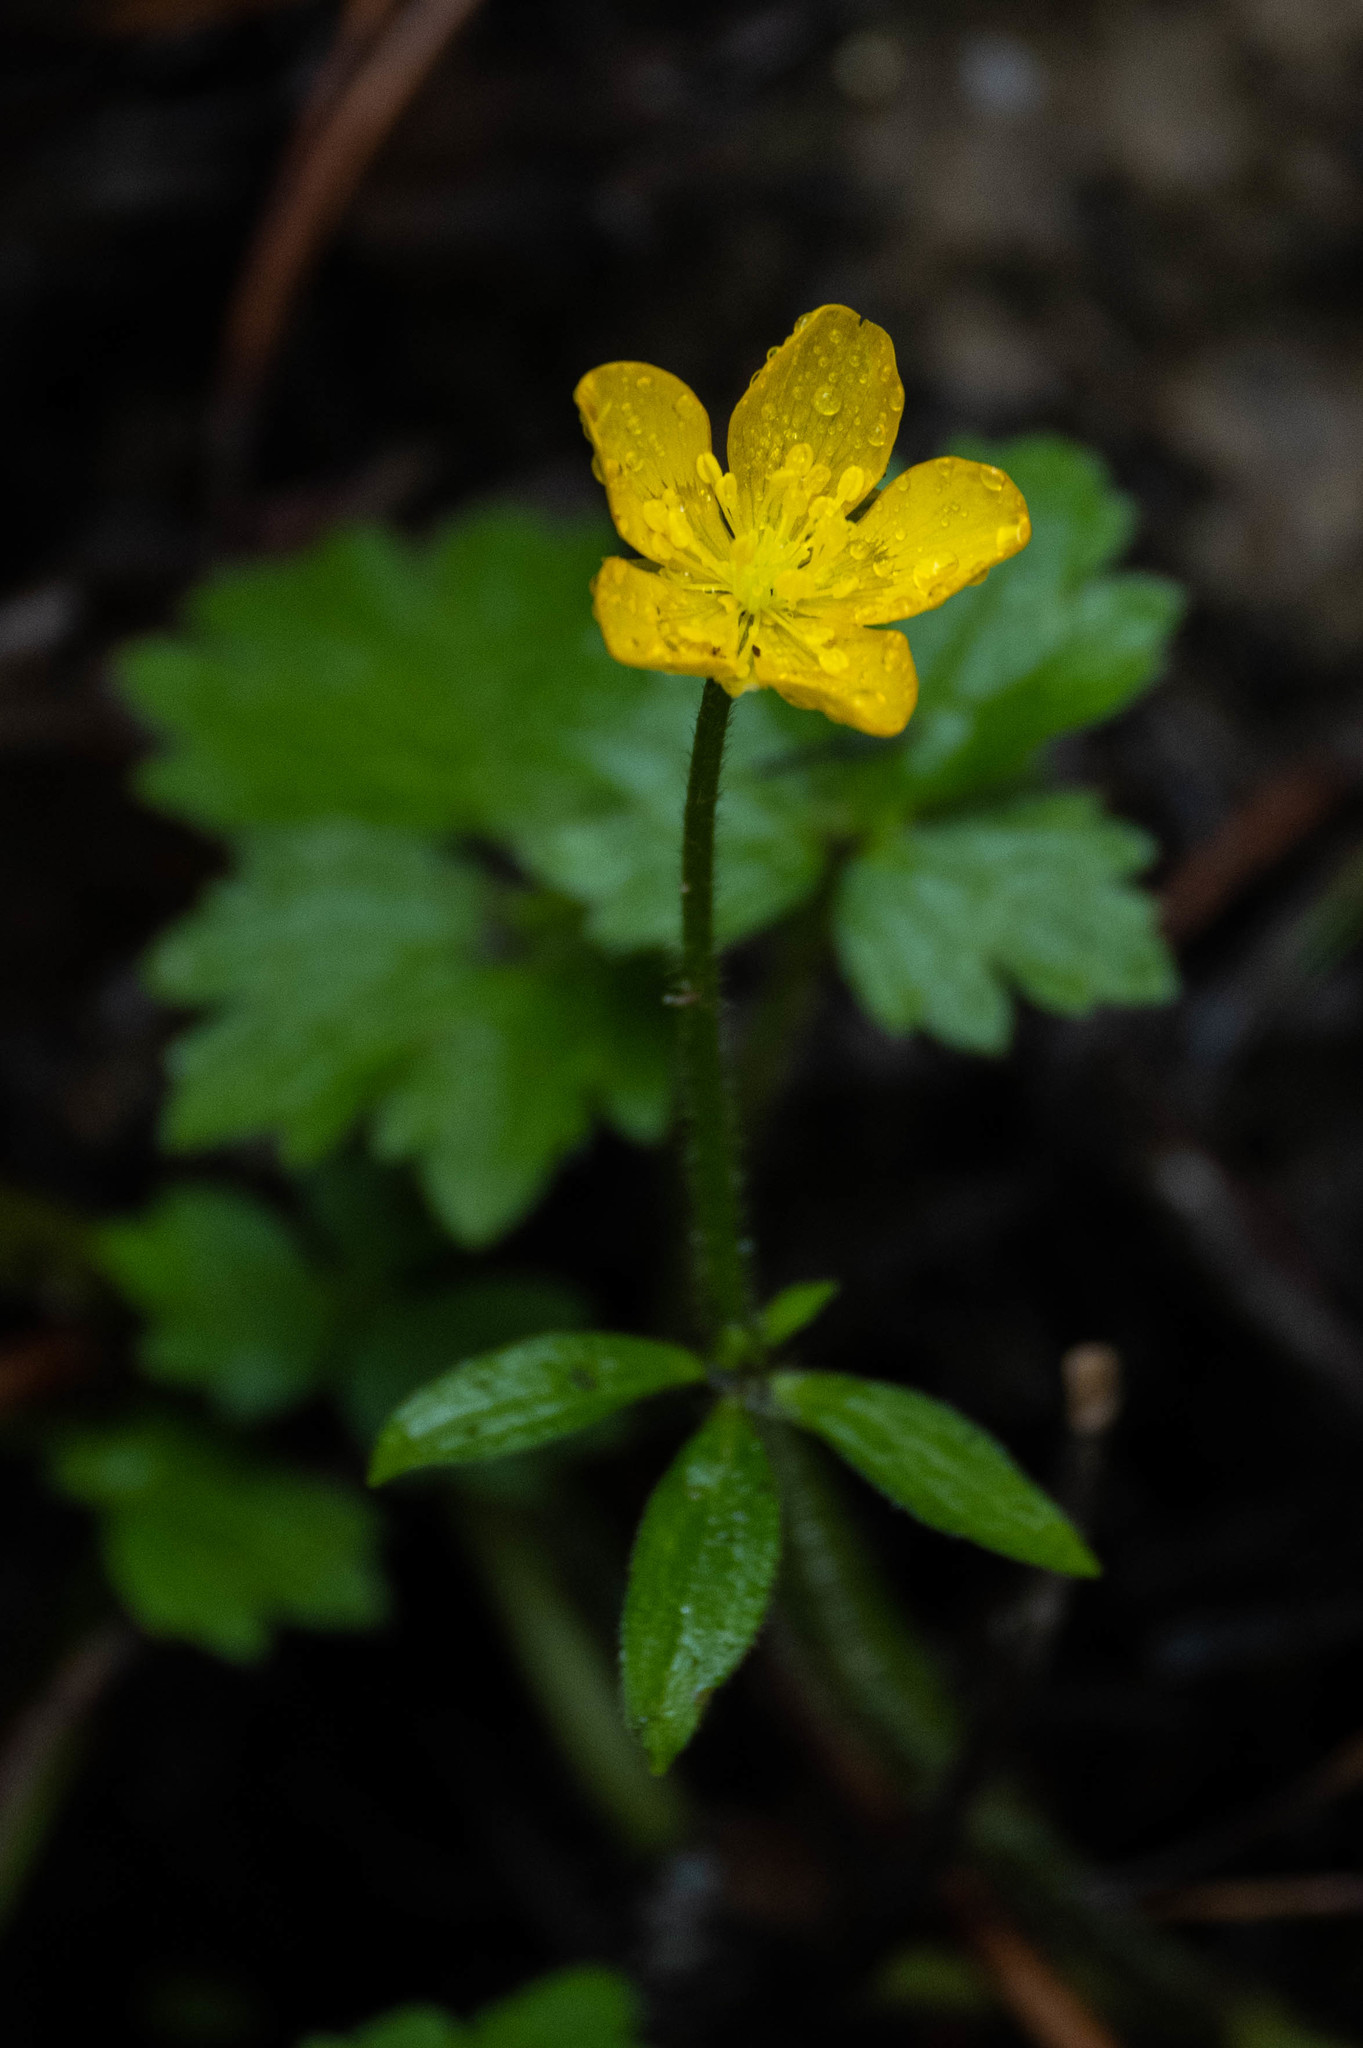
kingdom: Plantae
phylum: Tracheophyta
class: Magnoliopsida
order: Ranunculales
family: Ranunculaceae
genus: Ranunculus
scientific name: Ranunculus occidentalis
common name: Western buttercup
